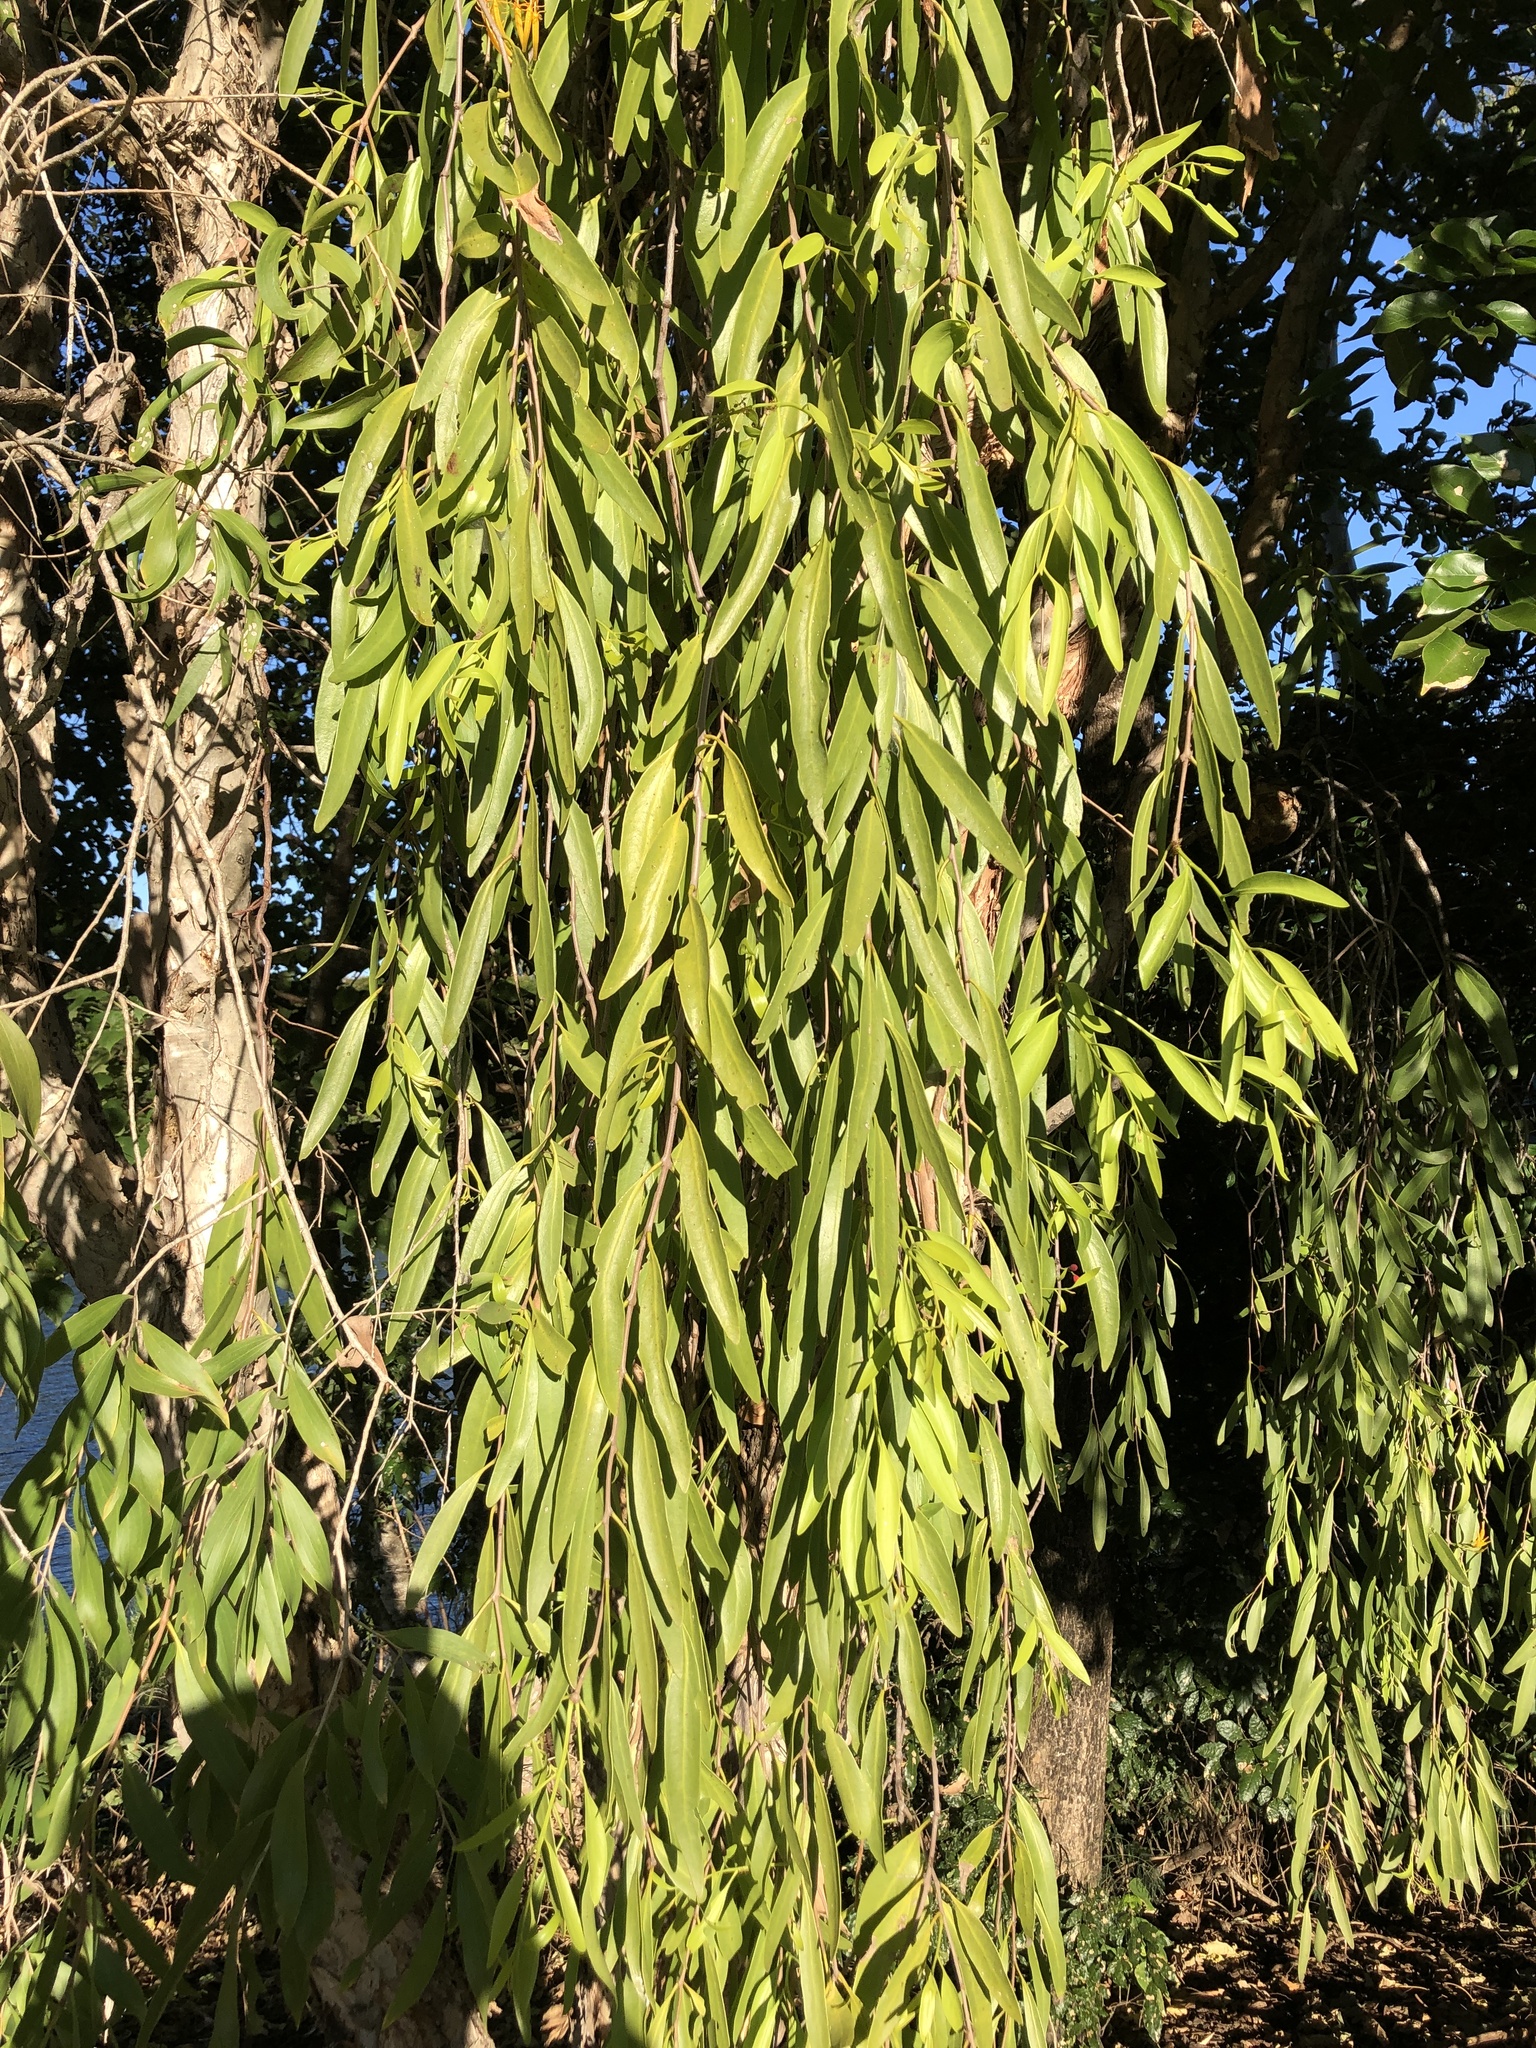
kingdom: Plantae
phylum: Tracheophyta
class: Magnoliopsida
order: Santalales
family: Loranthaceae
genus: Dendrophthoe
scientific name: Dendrophthoe glabrescens
